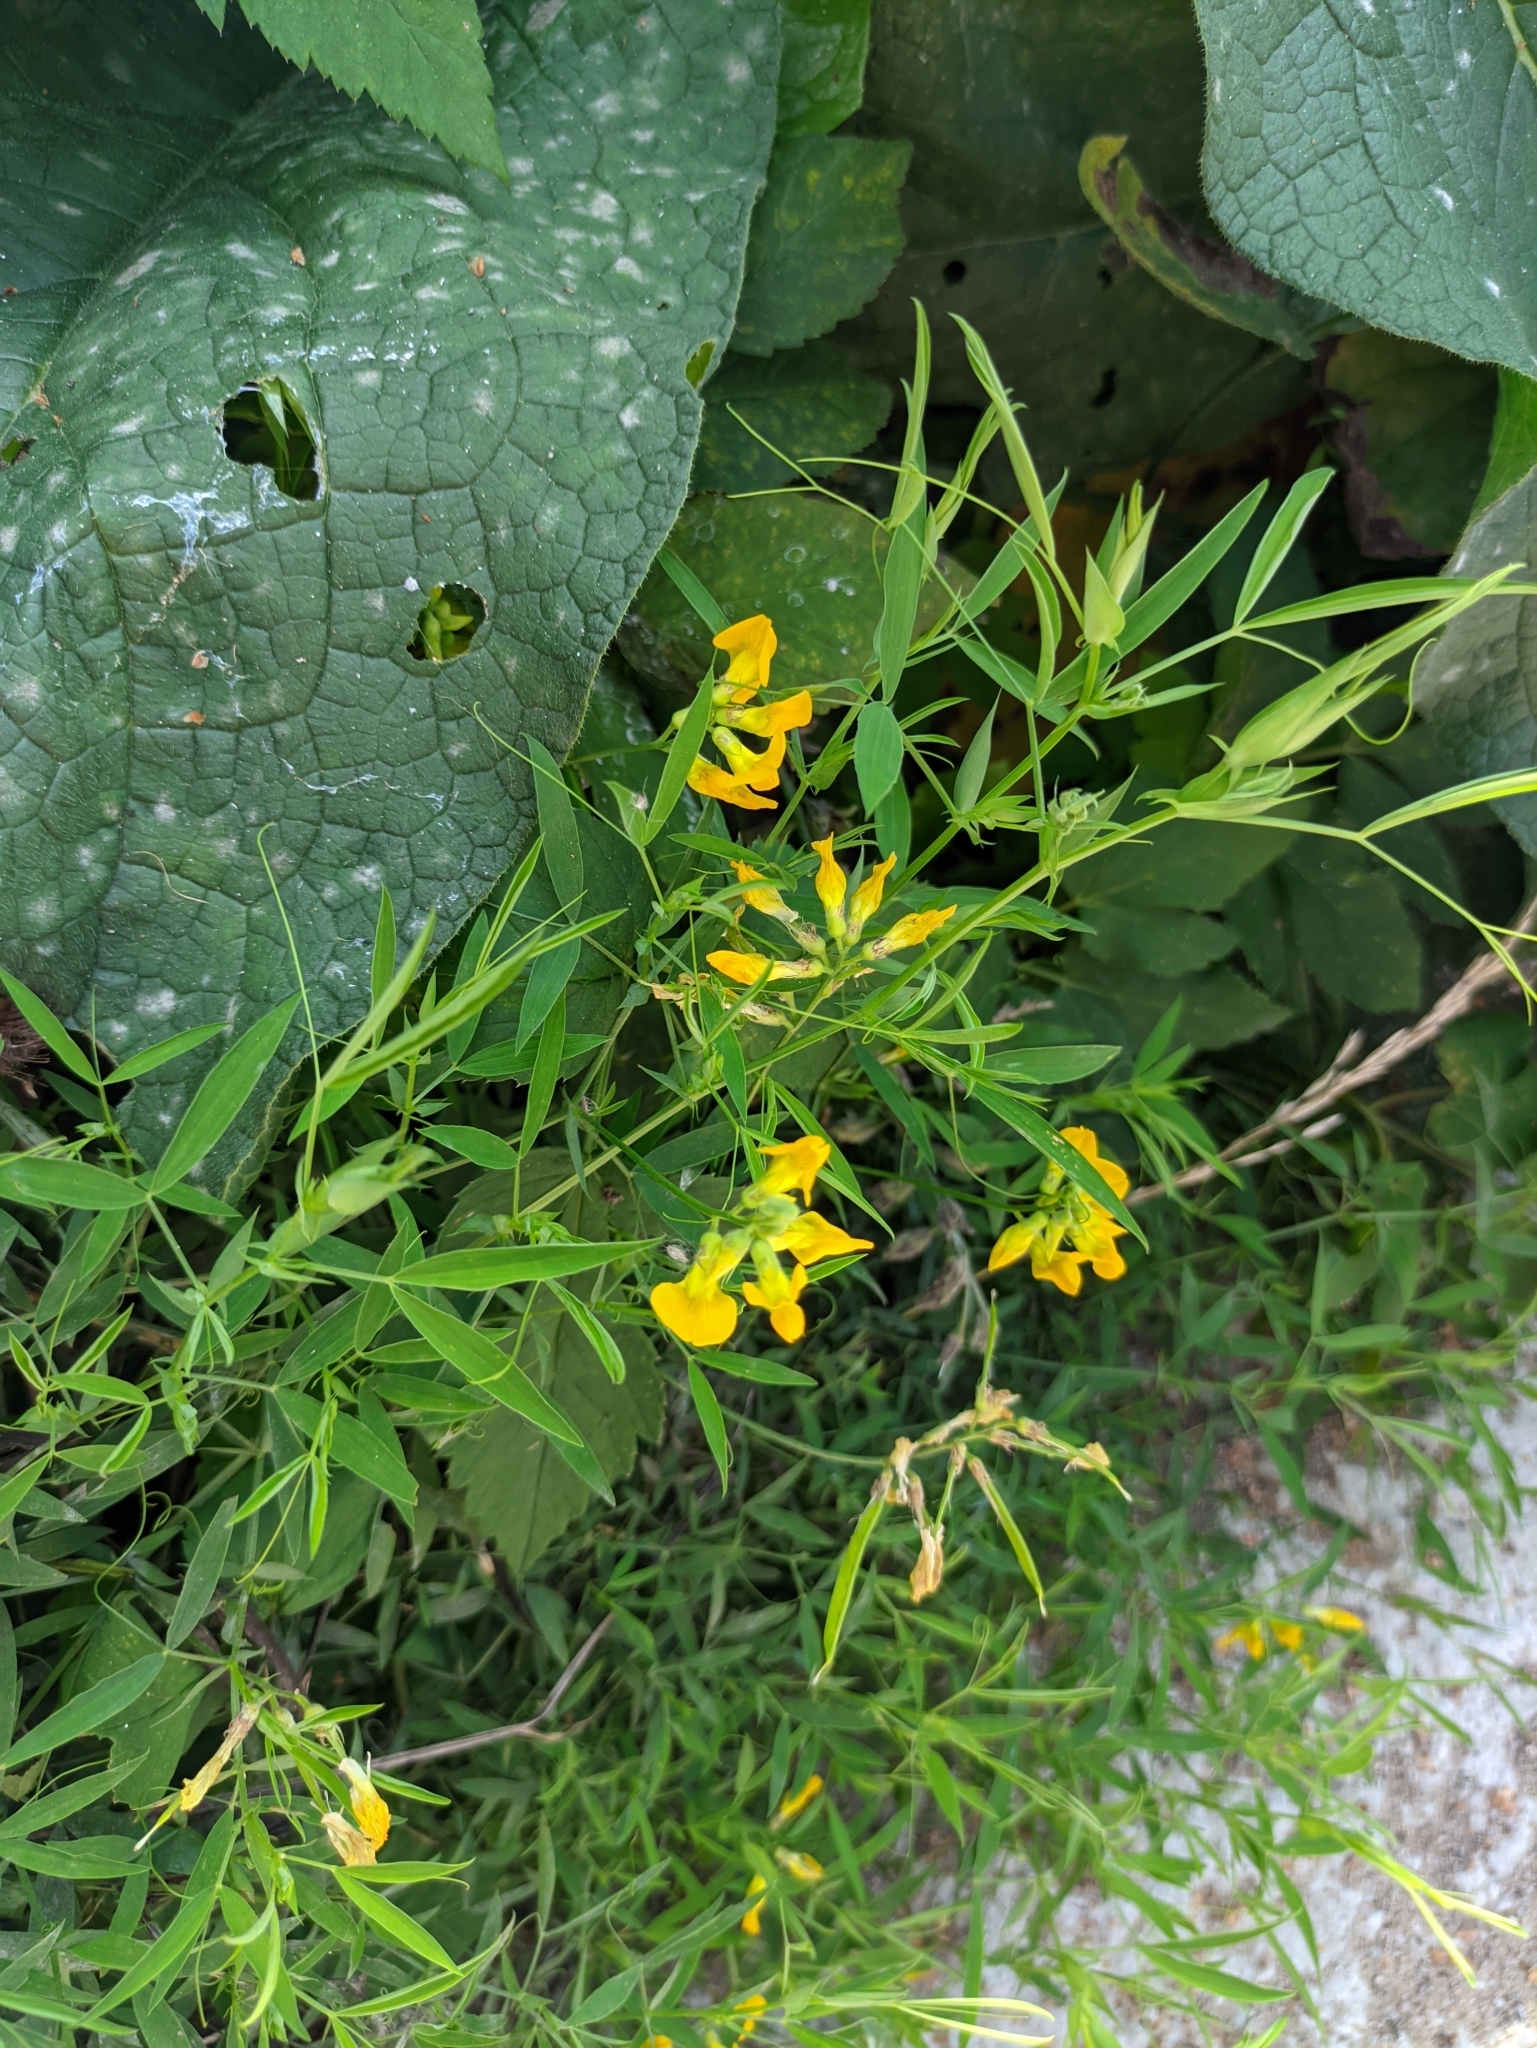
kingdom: Plantae
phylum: Tracheophyta
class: Magnoliopsida
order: Fabales
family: Fabaceae
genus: Lathyrus
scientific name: Lathyrus pratensis
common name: Meadow vetchling
